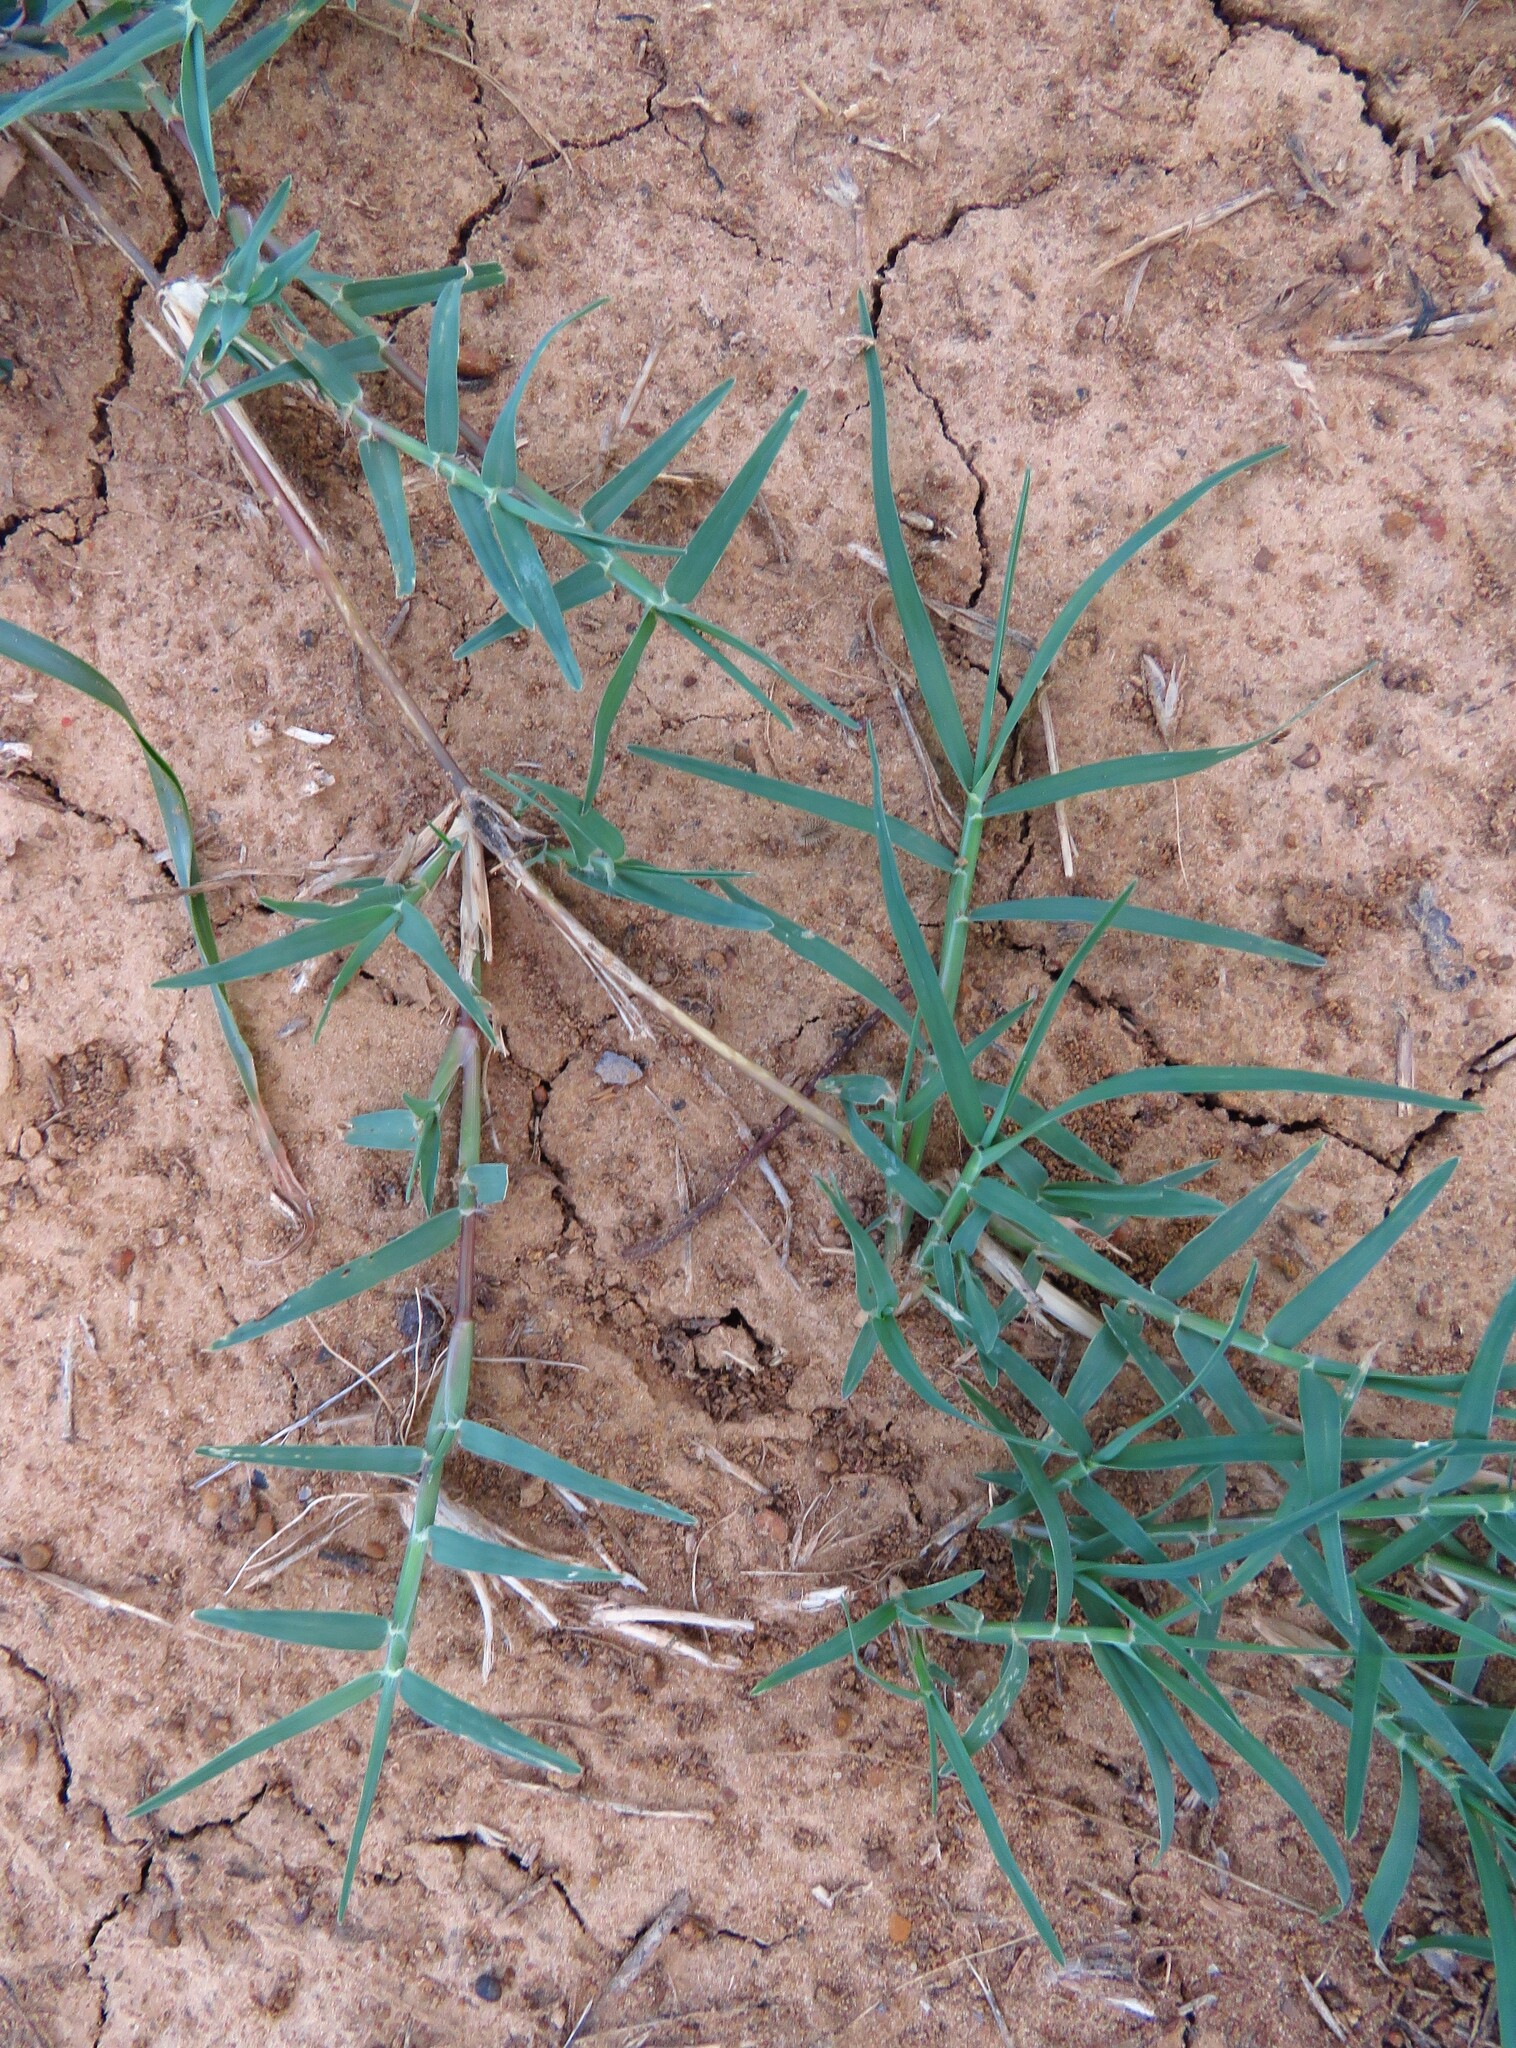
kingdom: Plantae
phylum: Tracheophyta
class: Liliopsida
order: Poales
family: Poaceae
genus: Cynodon
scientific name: Cynodon dactylon
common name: Bermuda grass
